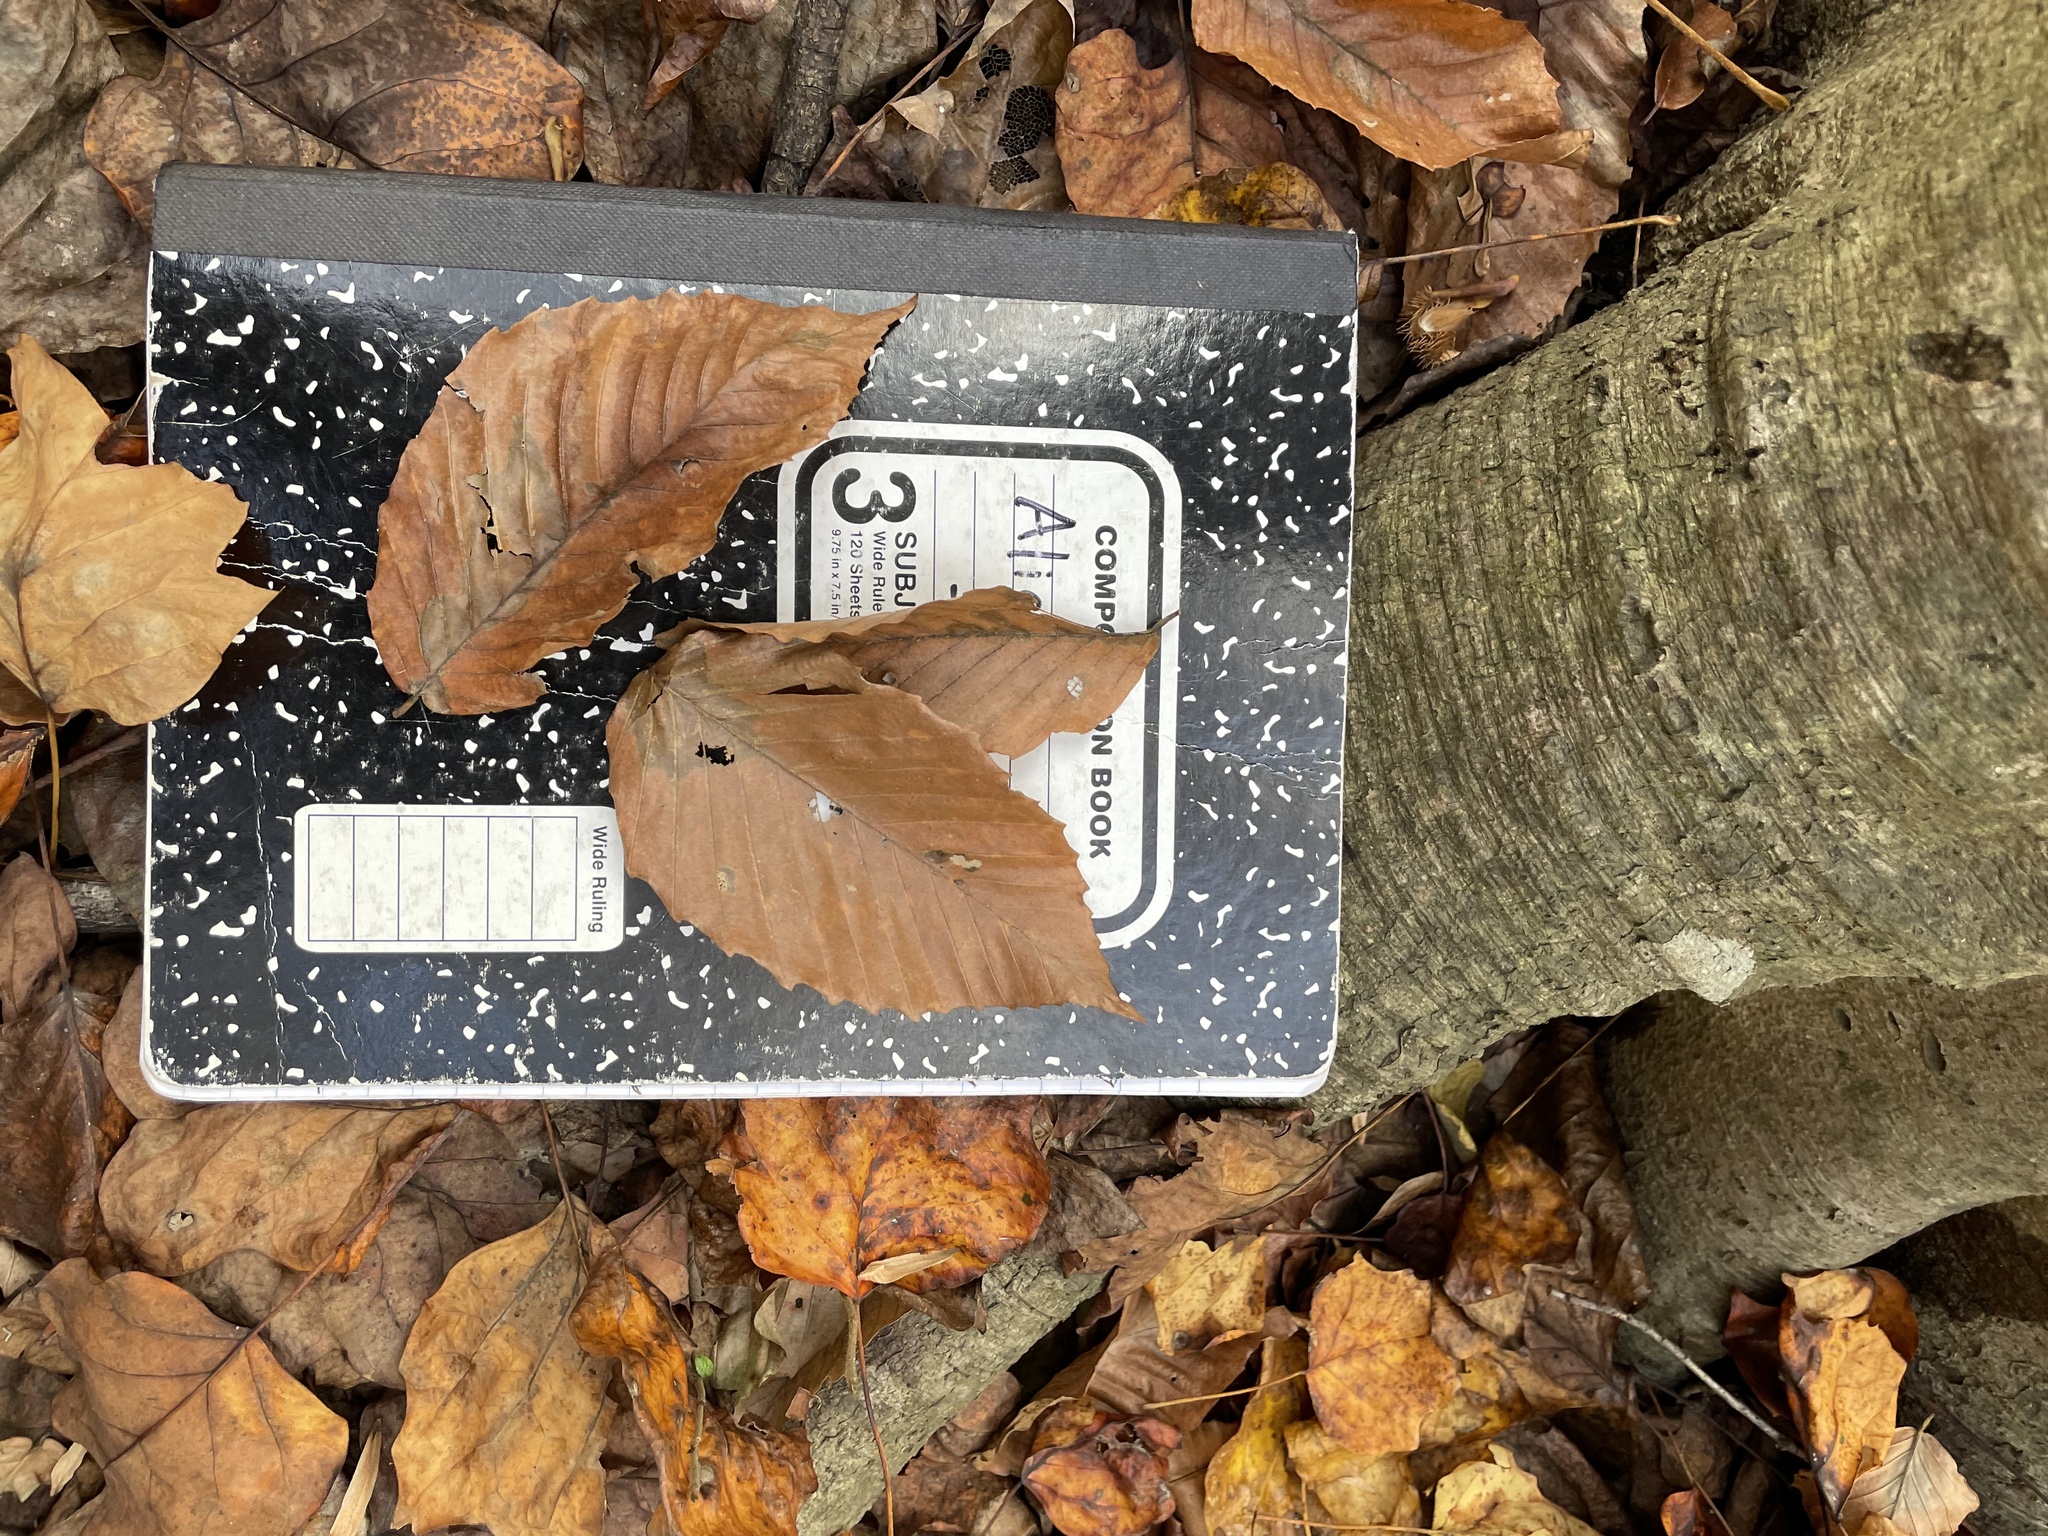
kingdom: Plantae
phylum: Tracheophyta
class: Magnoliopsida
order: Fagales
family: Fagaceae
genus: Fagus
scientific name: Fagus grandifolia
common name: American beech
